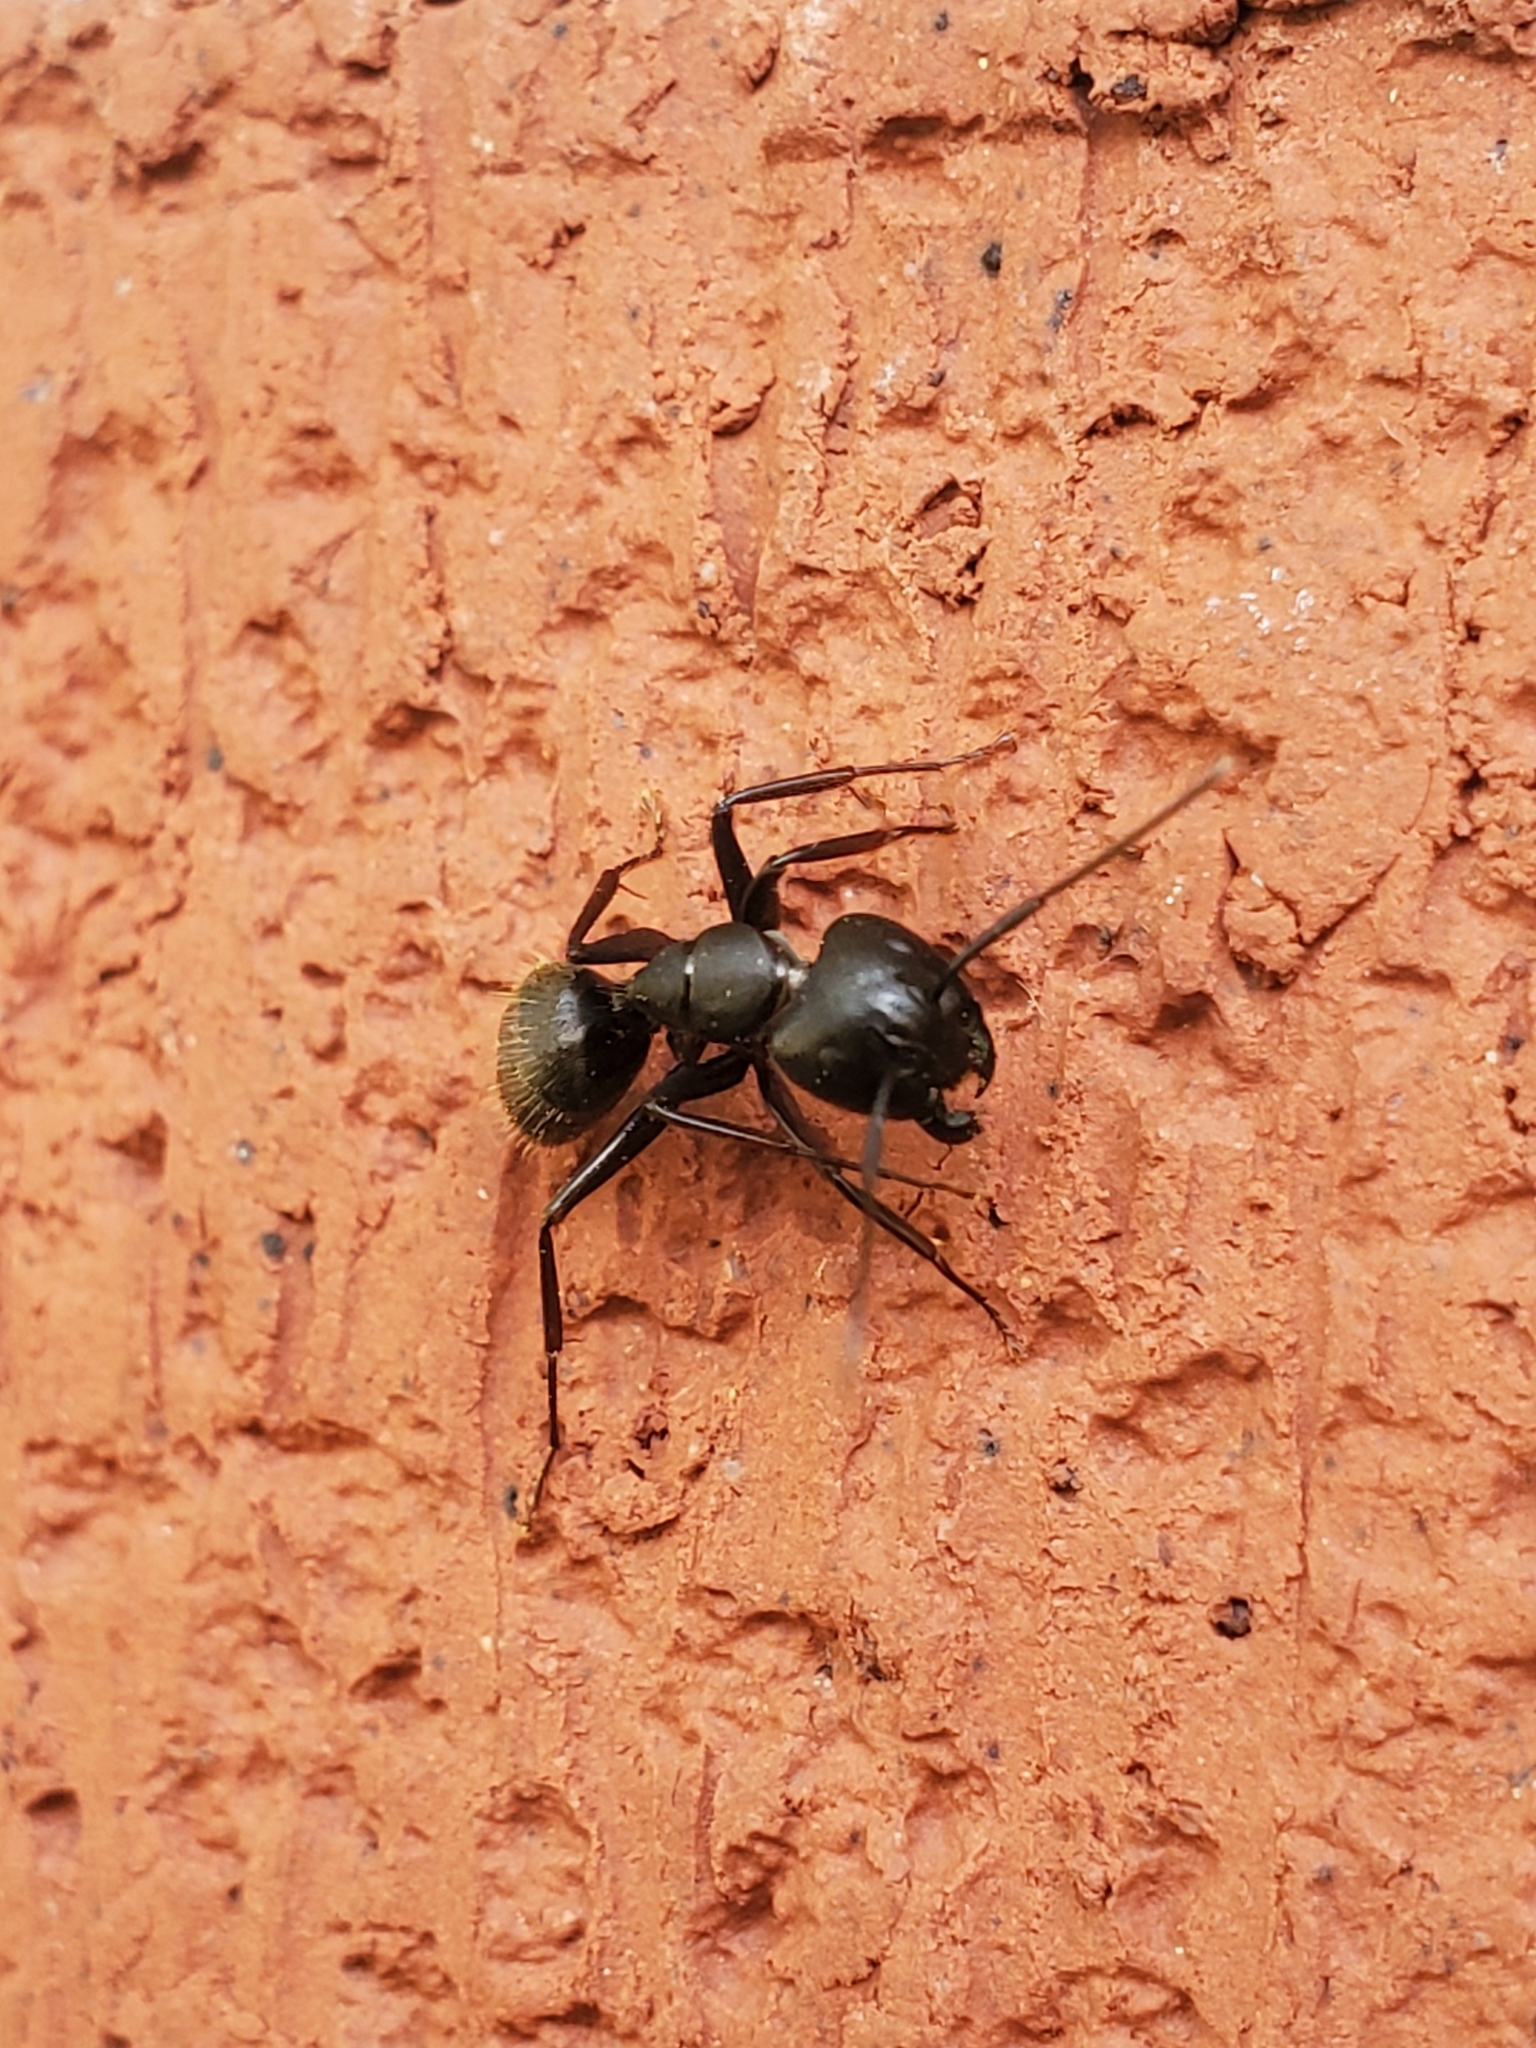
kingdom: Animalia
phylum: Arthropoda
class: Insecta
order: Hymenoptera
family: Formicidae
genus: Camponotus
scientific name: Camponotus pennsylvanicus
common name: Black carpenter ant
